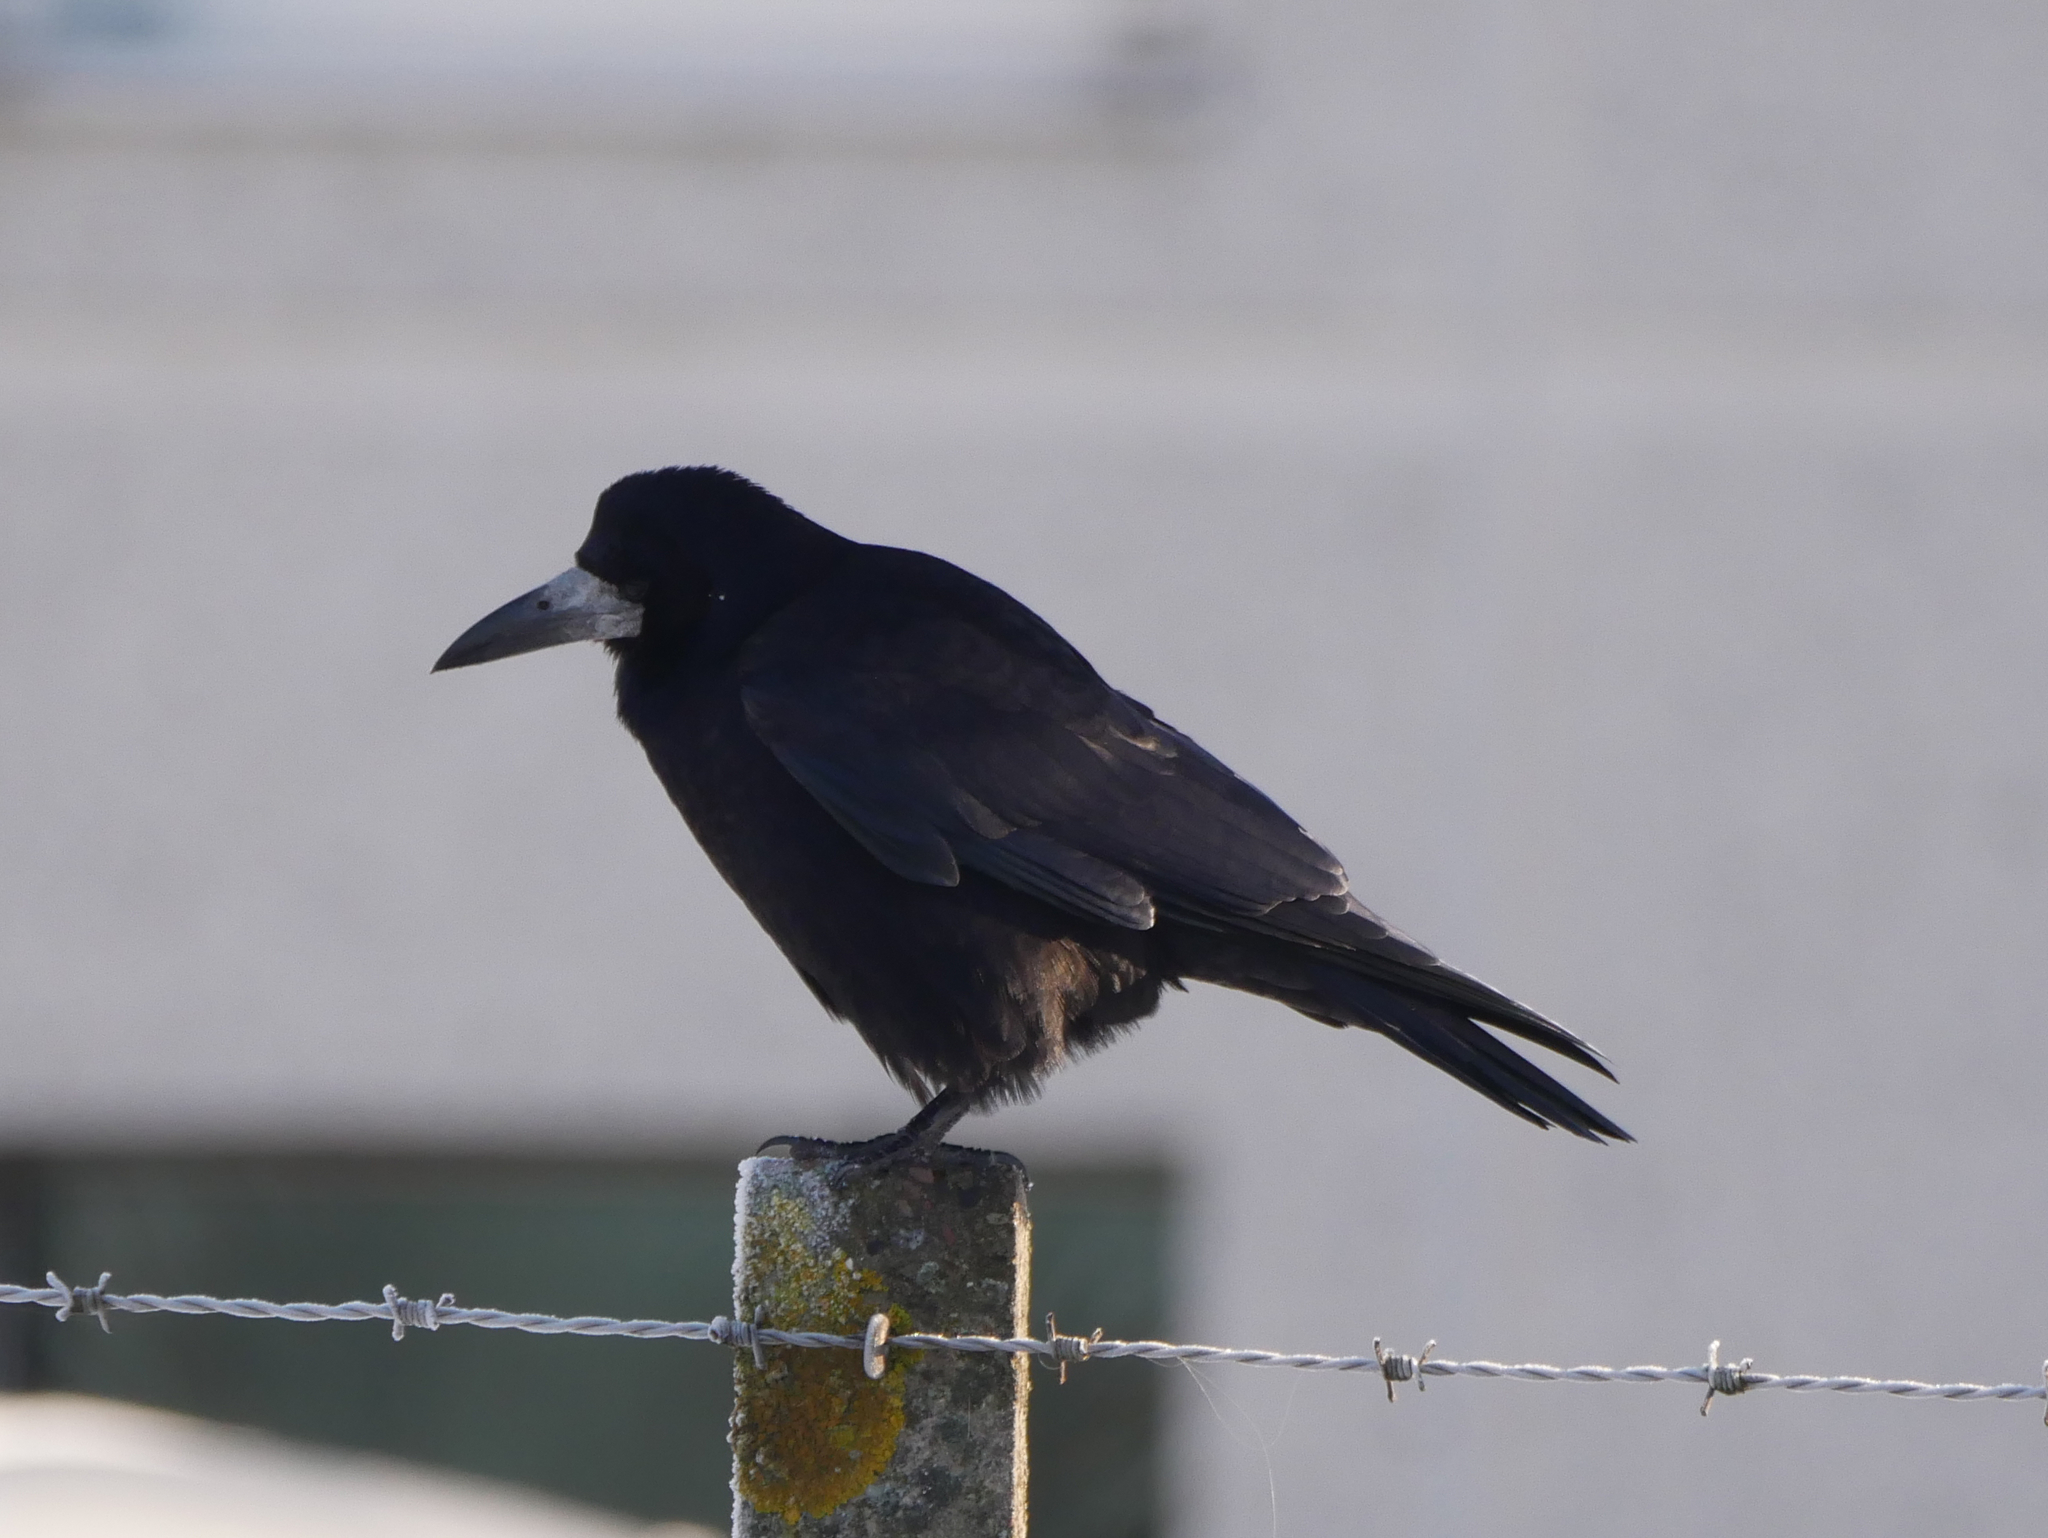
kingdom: Animalia
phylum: Chordata
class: Aves
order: Passeriformes
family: Corvidae
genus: Corvus
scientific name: Corvus frugilegus
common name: Rook
